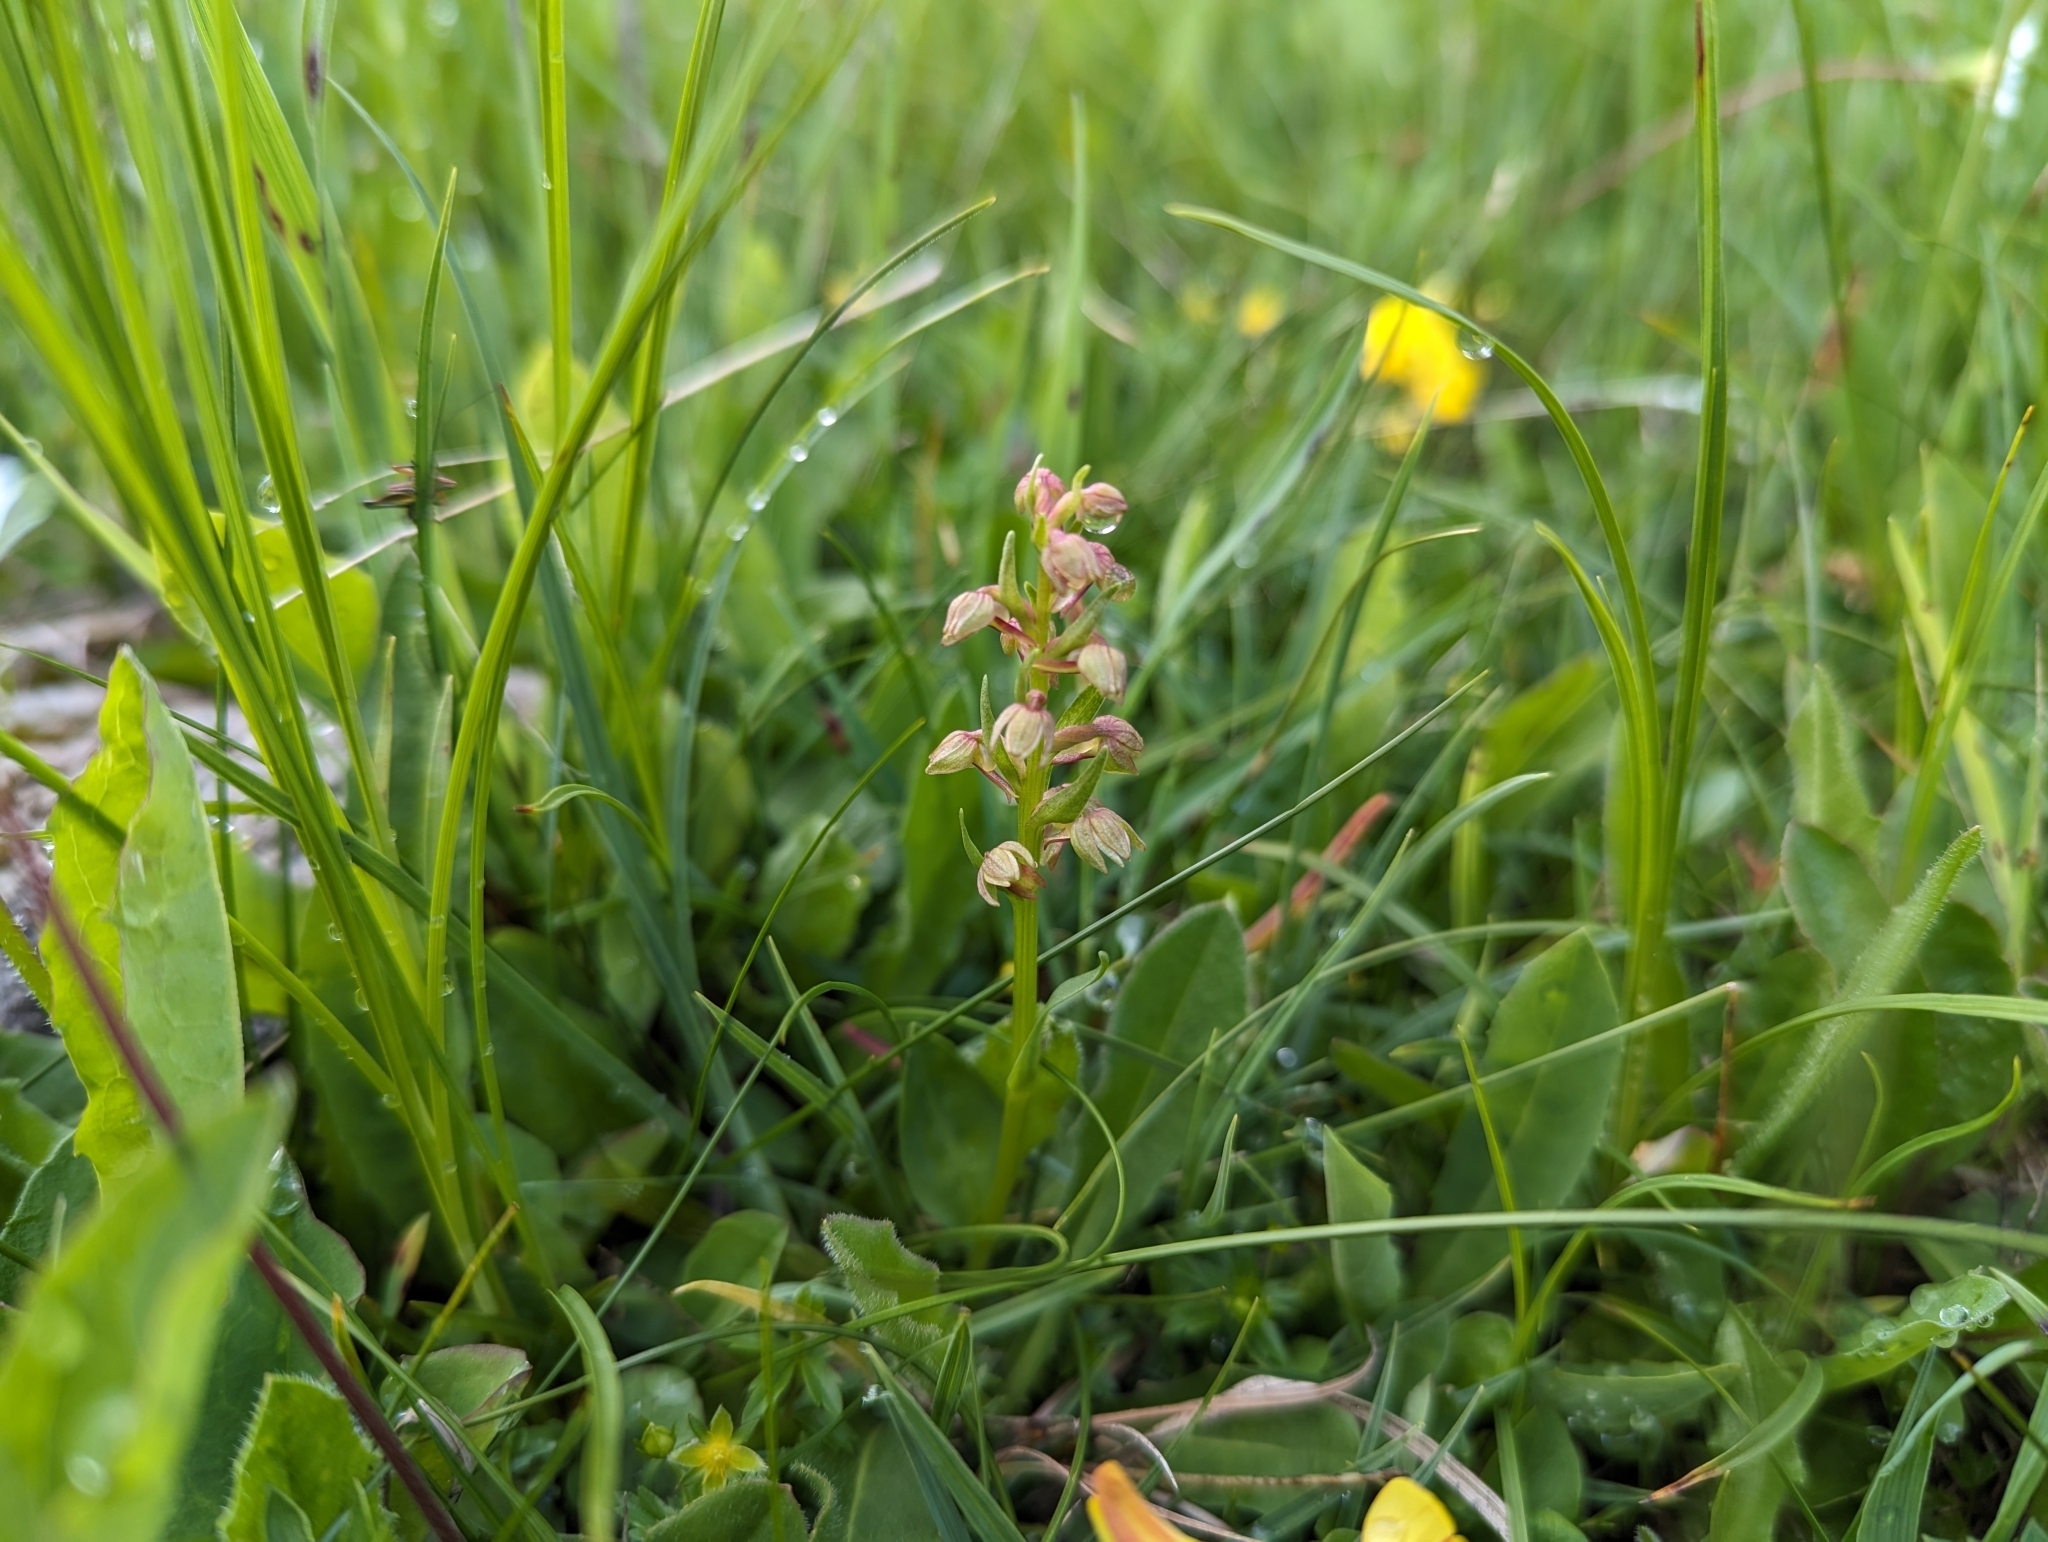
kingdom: Plantae
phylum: Tracheophyta
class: Liliopsida
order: Asparagales
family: Orchidaceae
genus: Dactylorhiza
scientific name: Dactylorhiza viridis
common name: Longbract frog orchid
